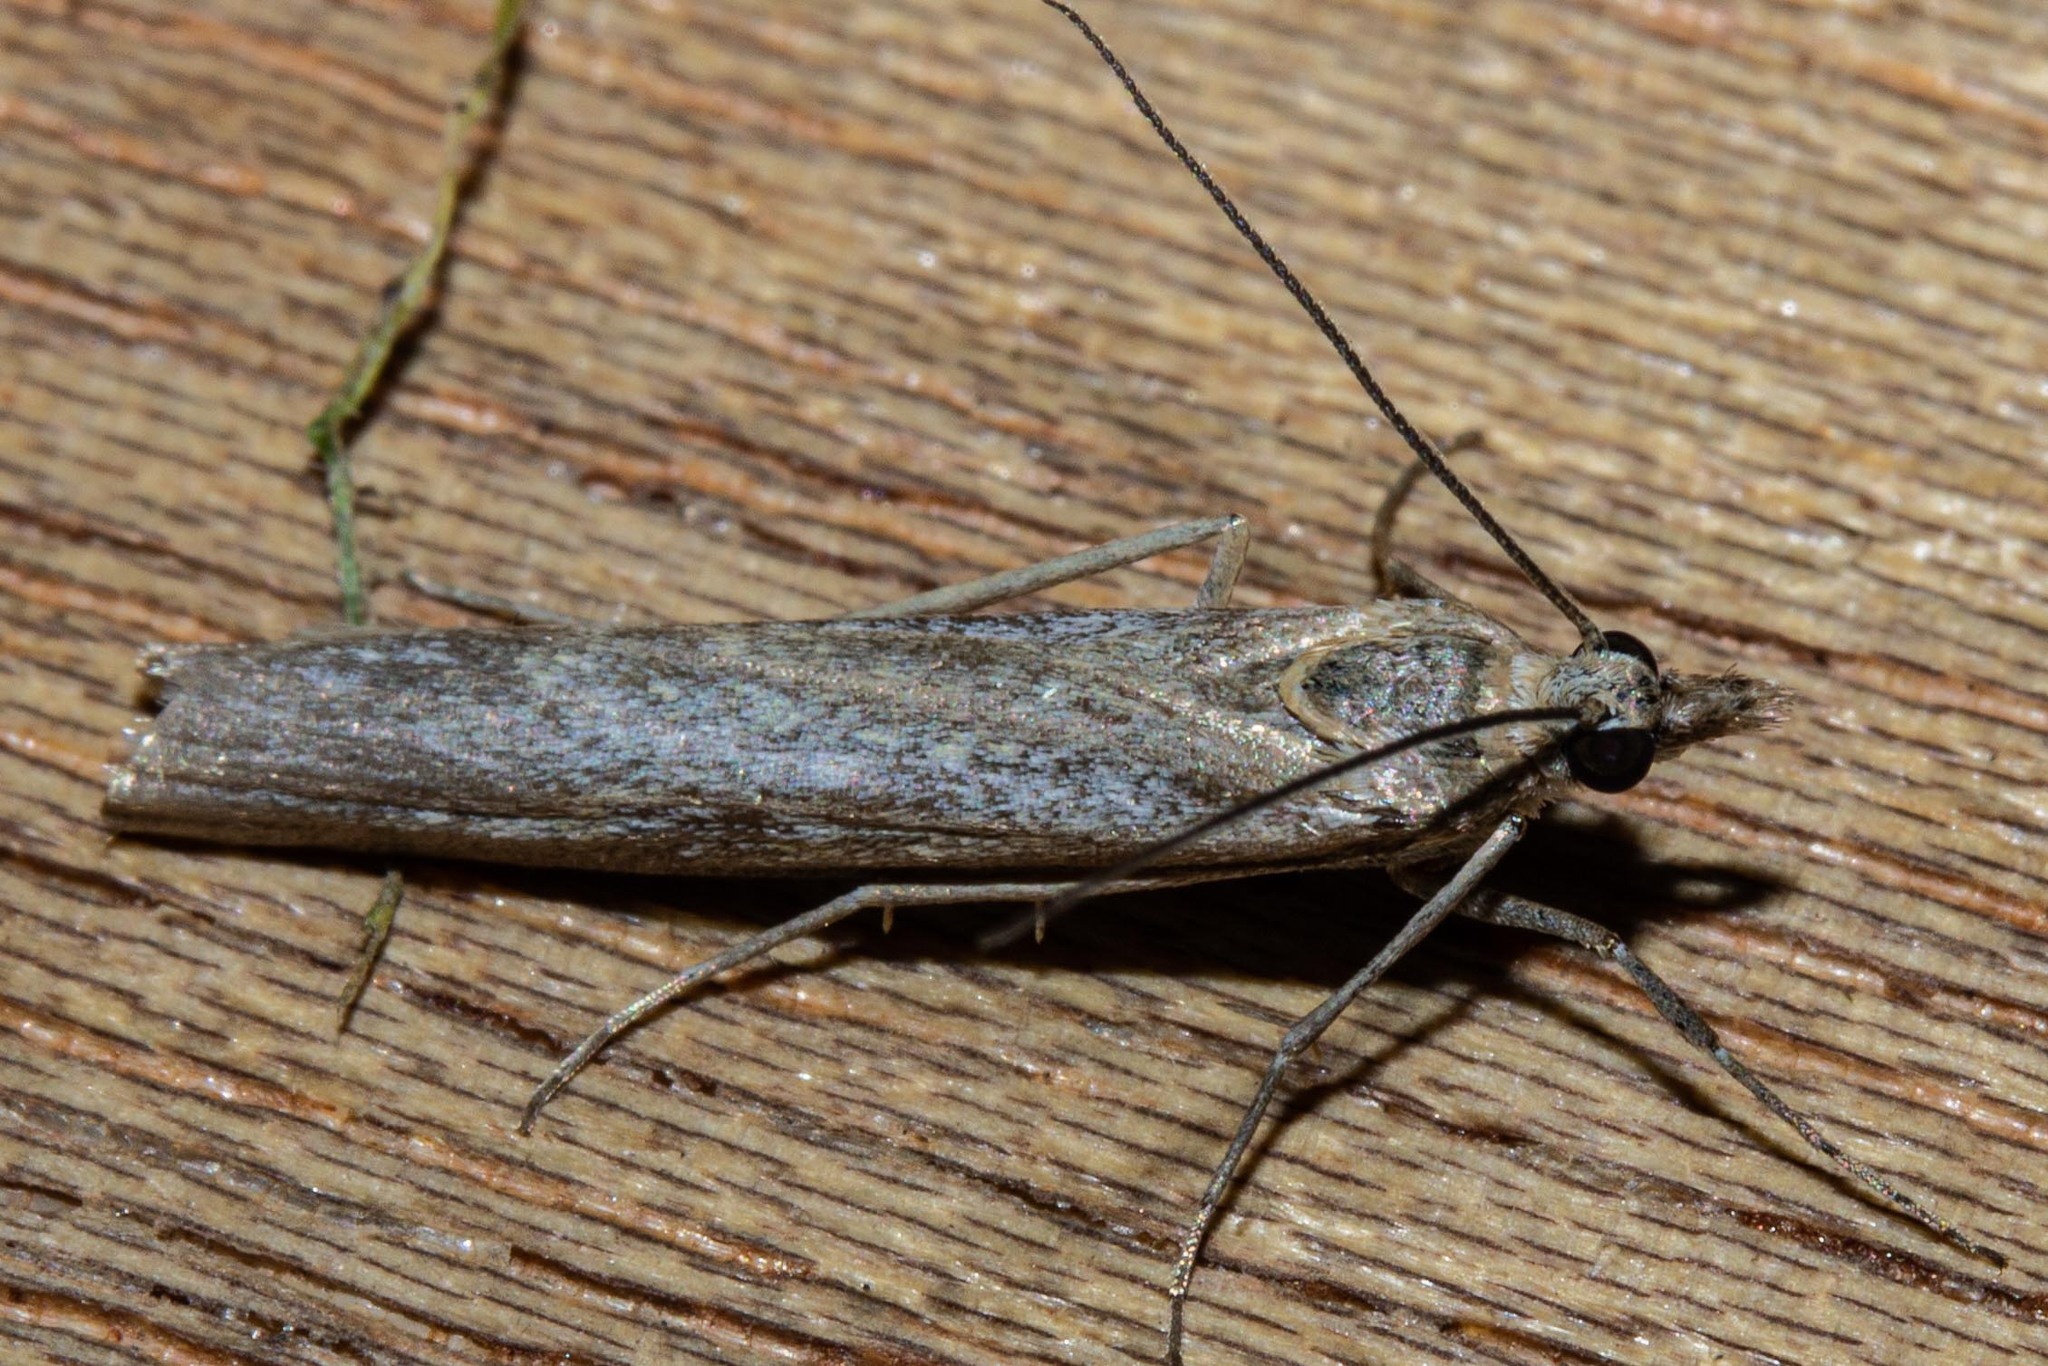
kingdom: Animalia
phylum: Arthropoda
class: Insecta
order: Lepidoptera
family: Crambidae
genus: Eudonia
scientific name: Eudonia leptalea
